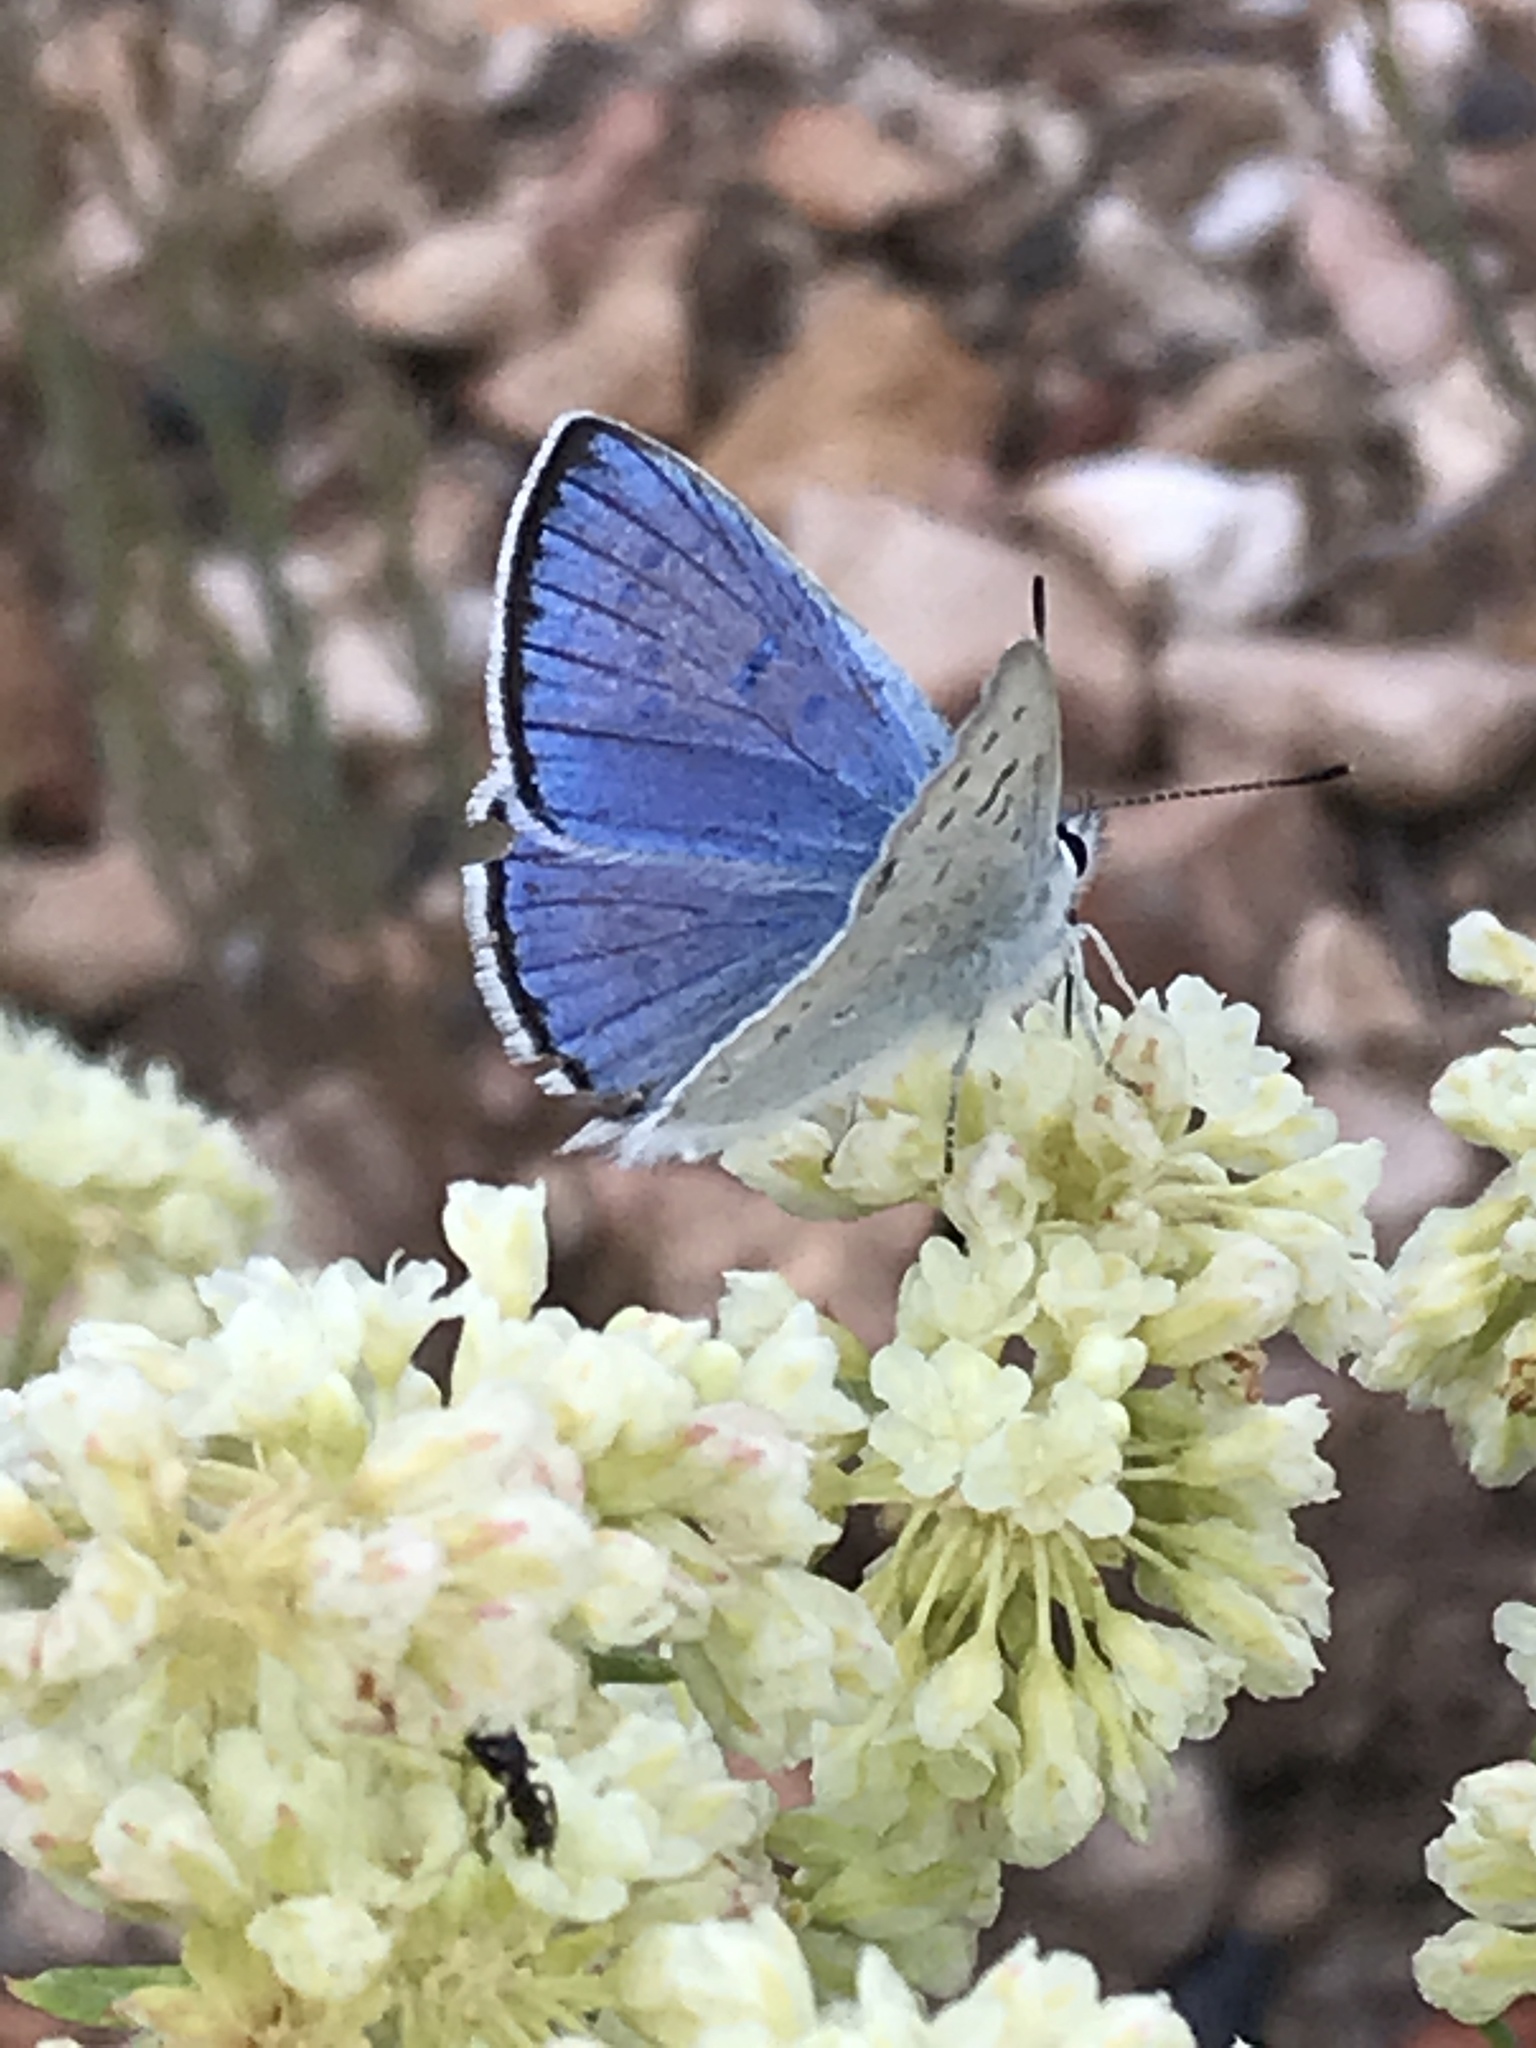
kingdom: Animalia
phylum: Arthropoda
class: Insecta
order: Lepidoptera
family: Lycaenidae
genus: Tharsalea
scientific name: Tharsalea heteronea
